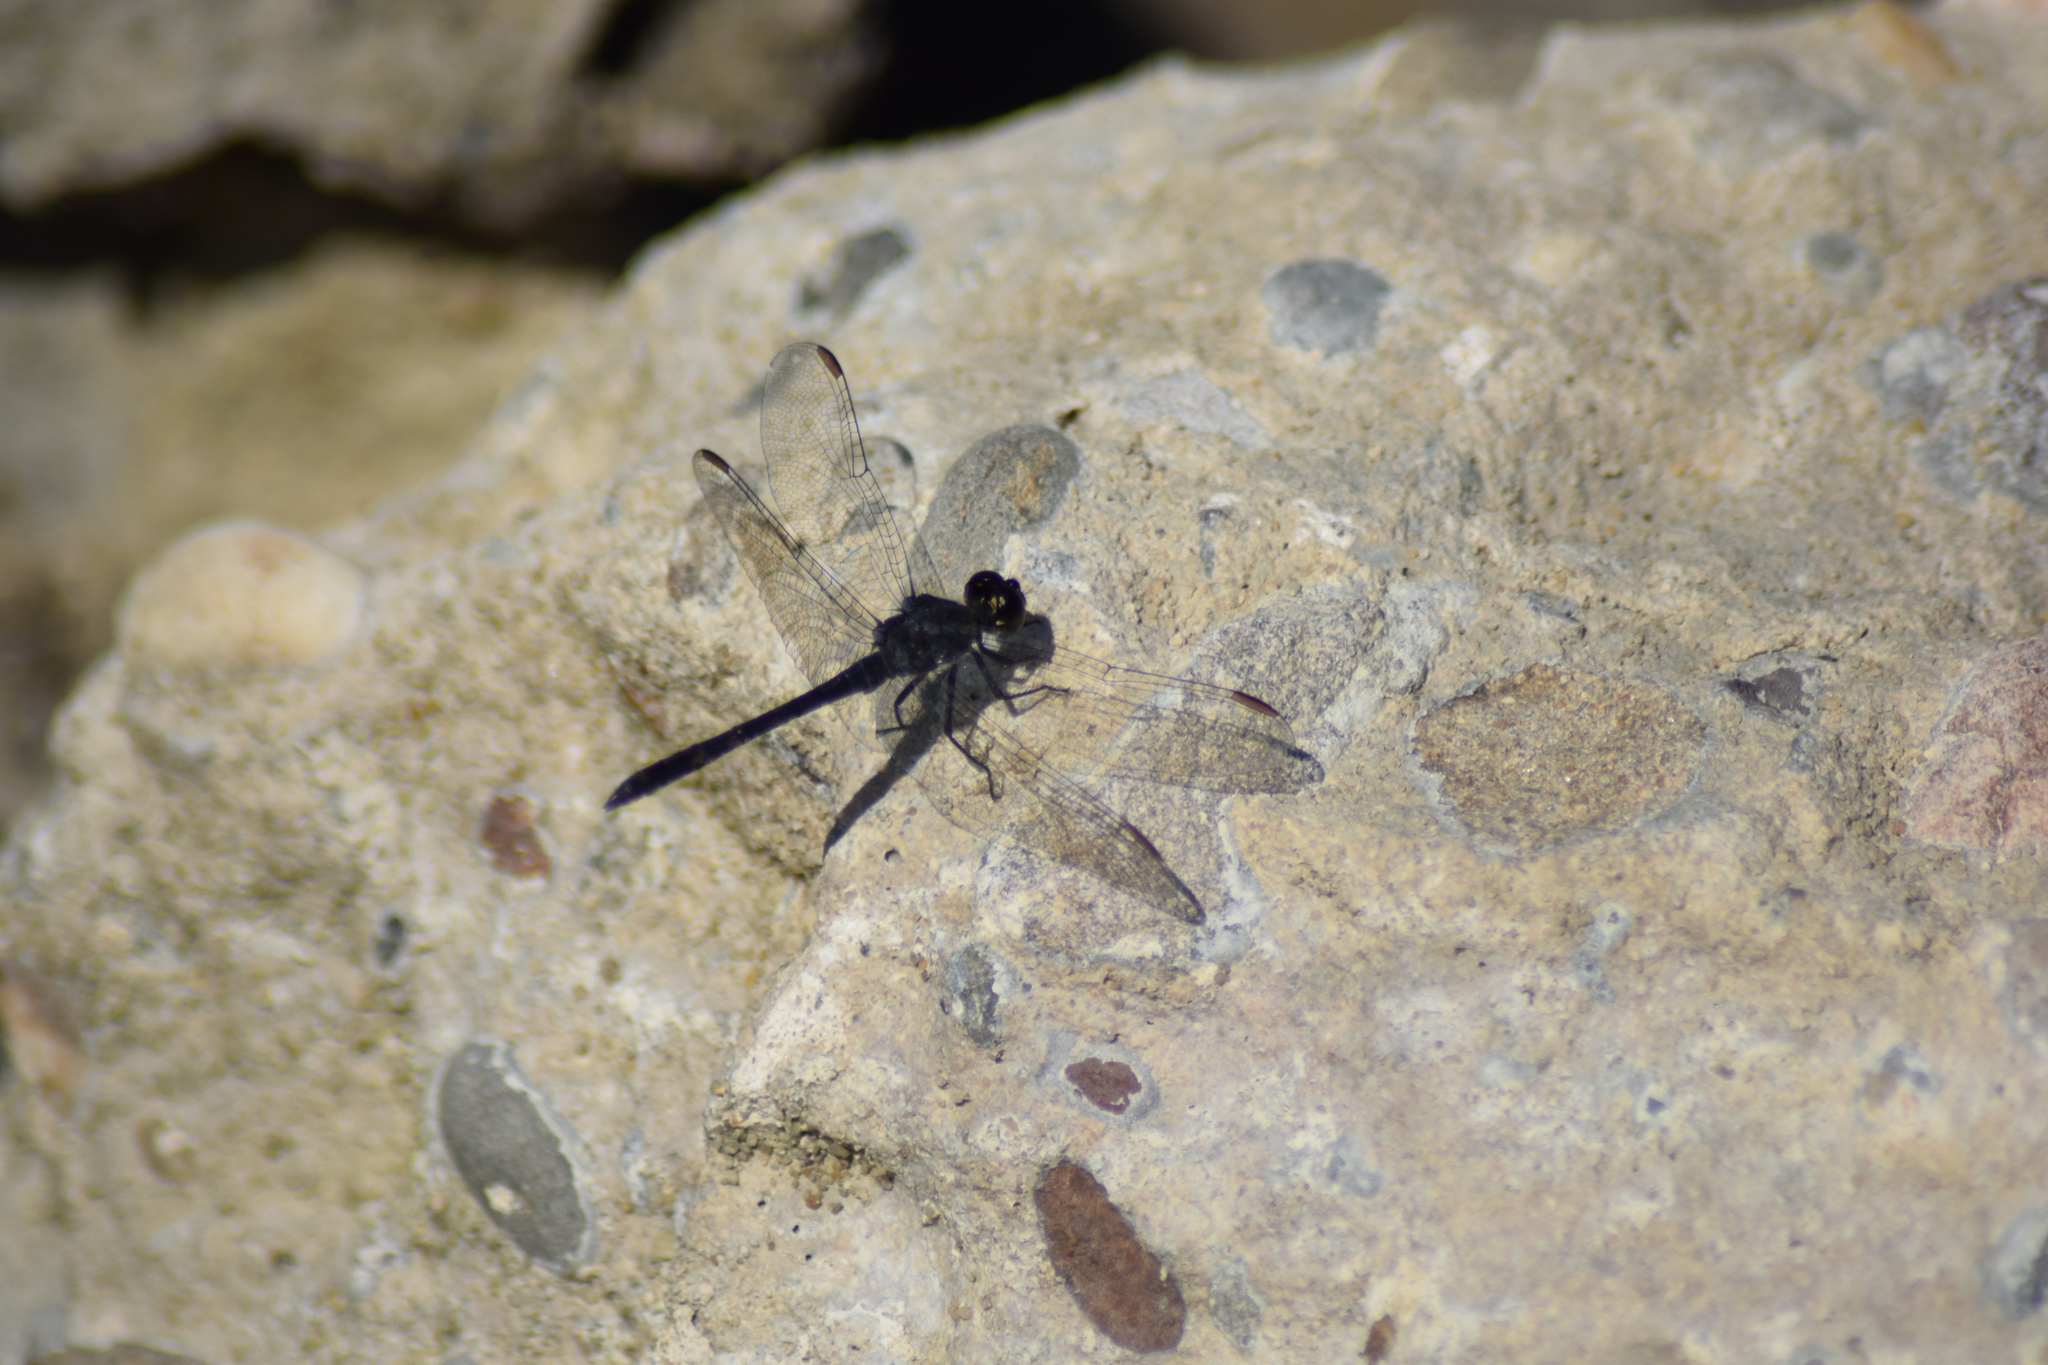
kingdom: Animalia
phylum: Arthropoda
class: Insecta
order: Odonata
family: Libellulidae
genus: Erythrodiplax
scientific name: Erythrodiplax berenice
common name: Seaside dragonlet
